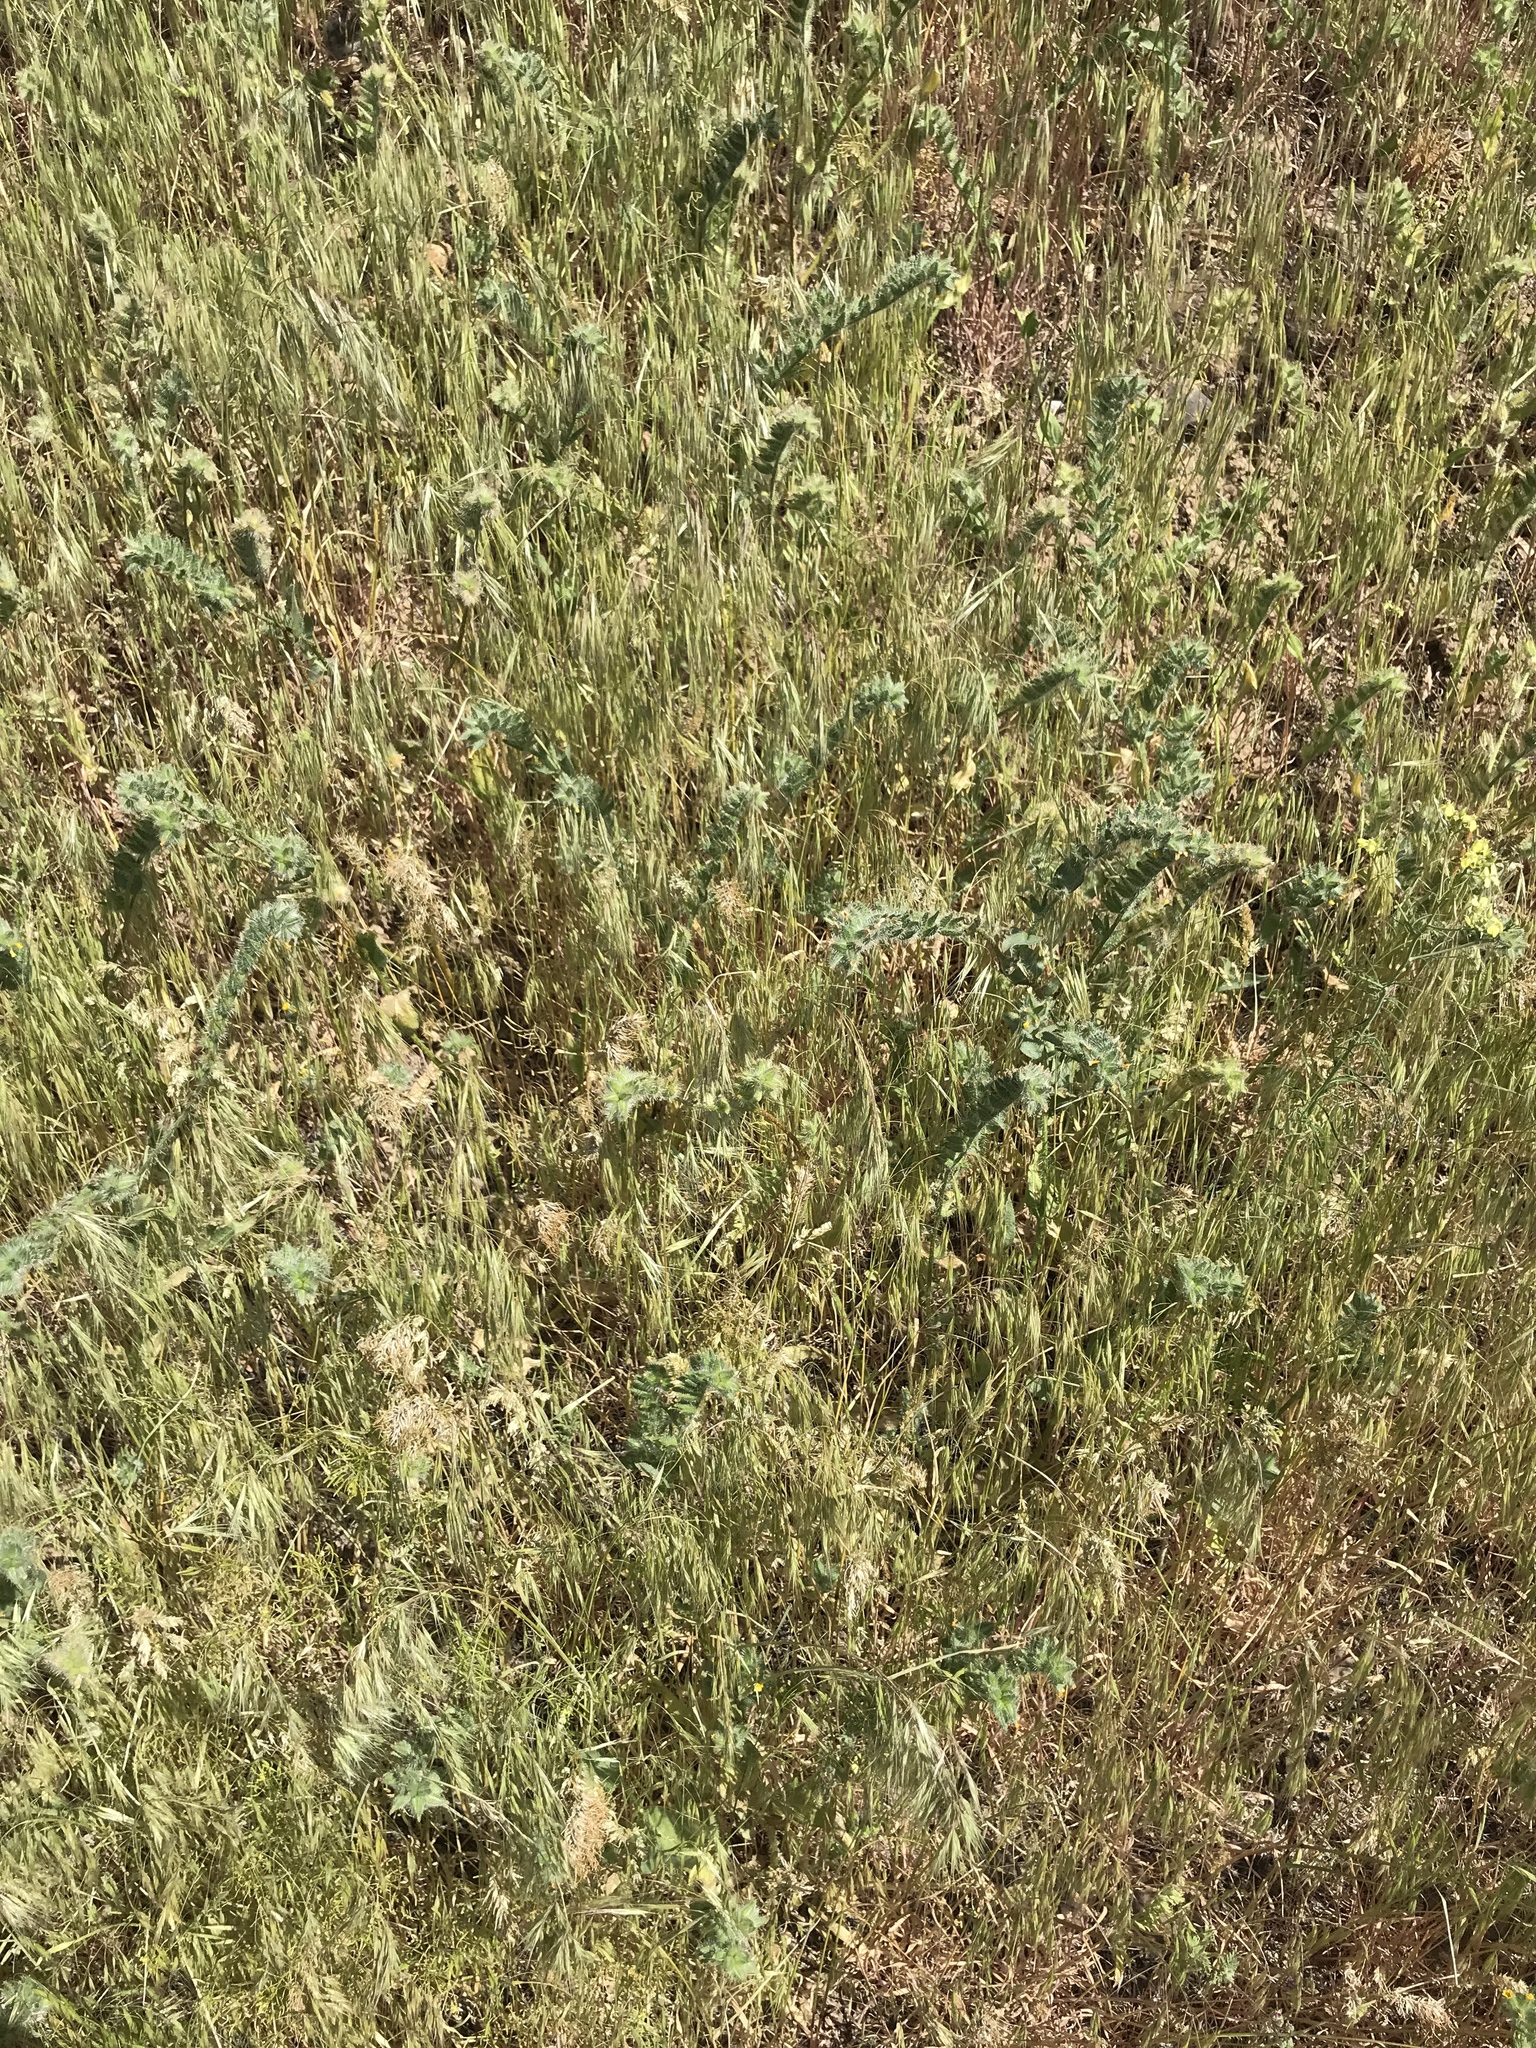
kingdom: Plantae
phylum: Tracheophyta
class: Magnoliopsida
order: Boraginales
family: Boraginaceae
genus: Amsinckia
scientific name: Amsinckia tessellata
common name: Tessellate fiddleneck
